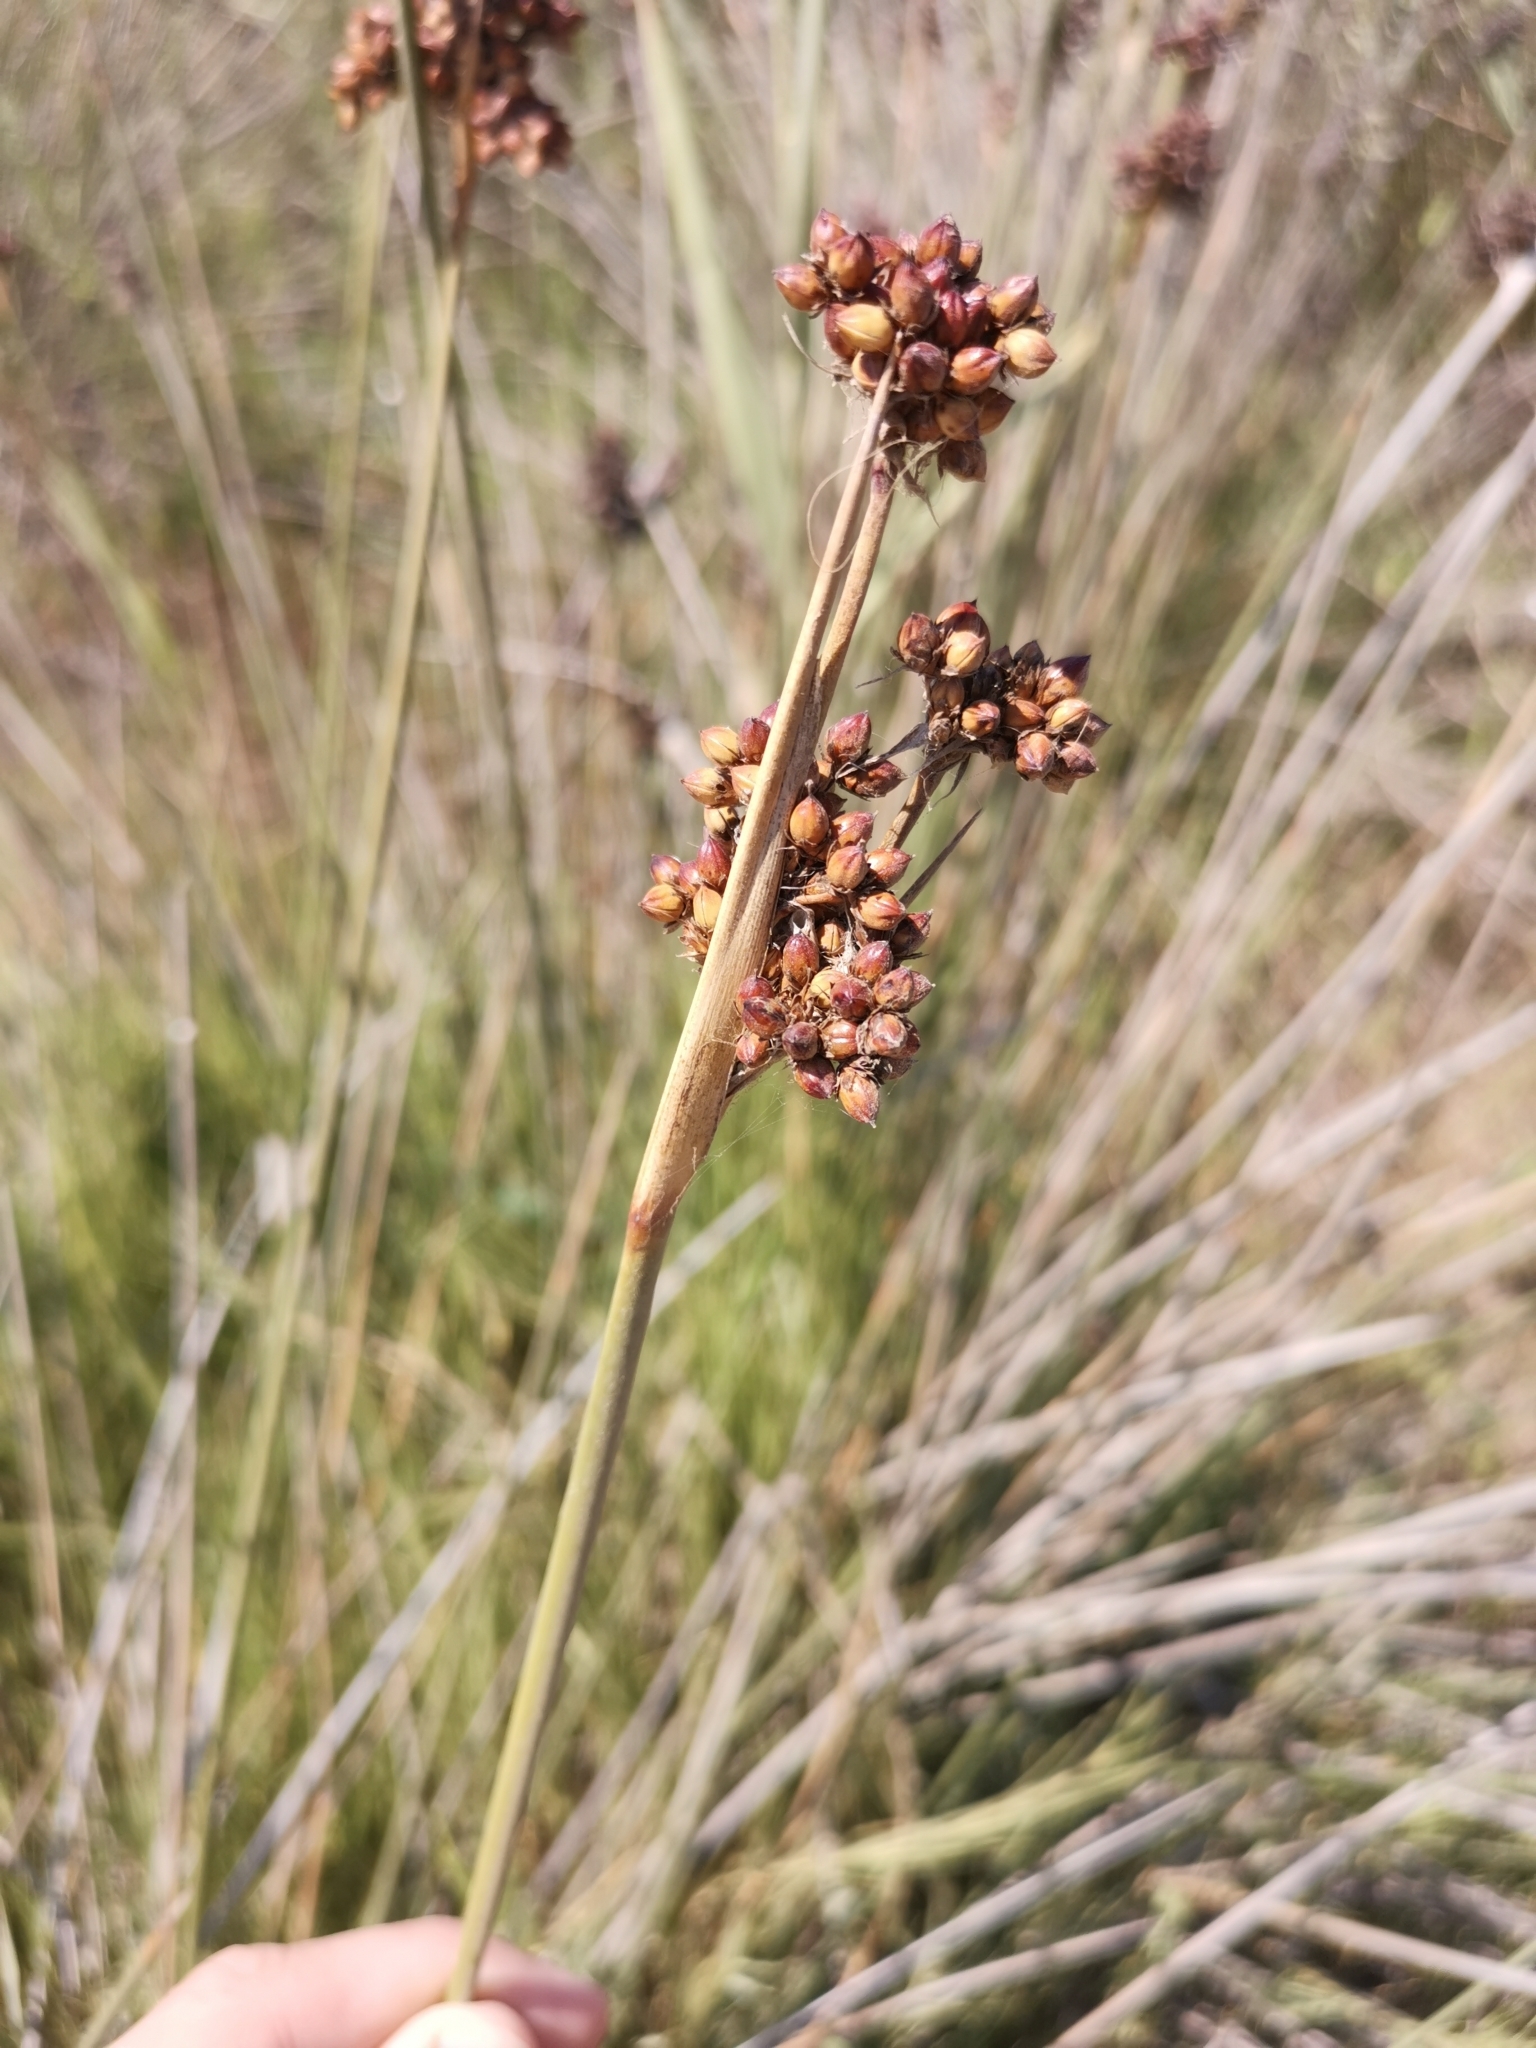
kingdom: Plantae
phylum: Tracheophyta
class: Liliopsida
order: Poales
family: Juncaceae
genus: Juncus
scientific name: Juncus acutus
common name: Sharp rush
